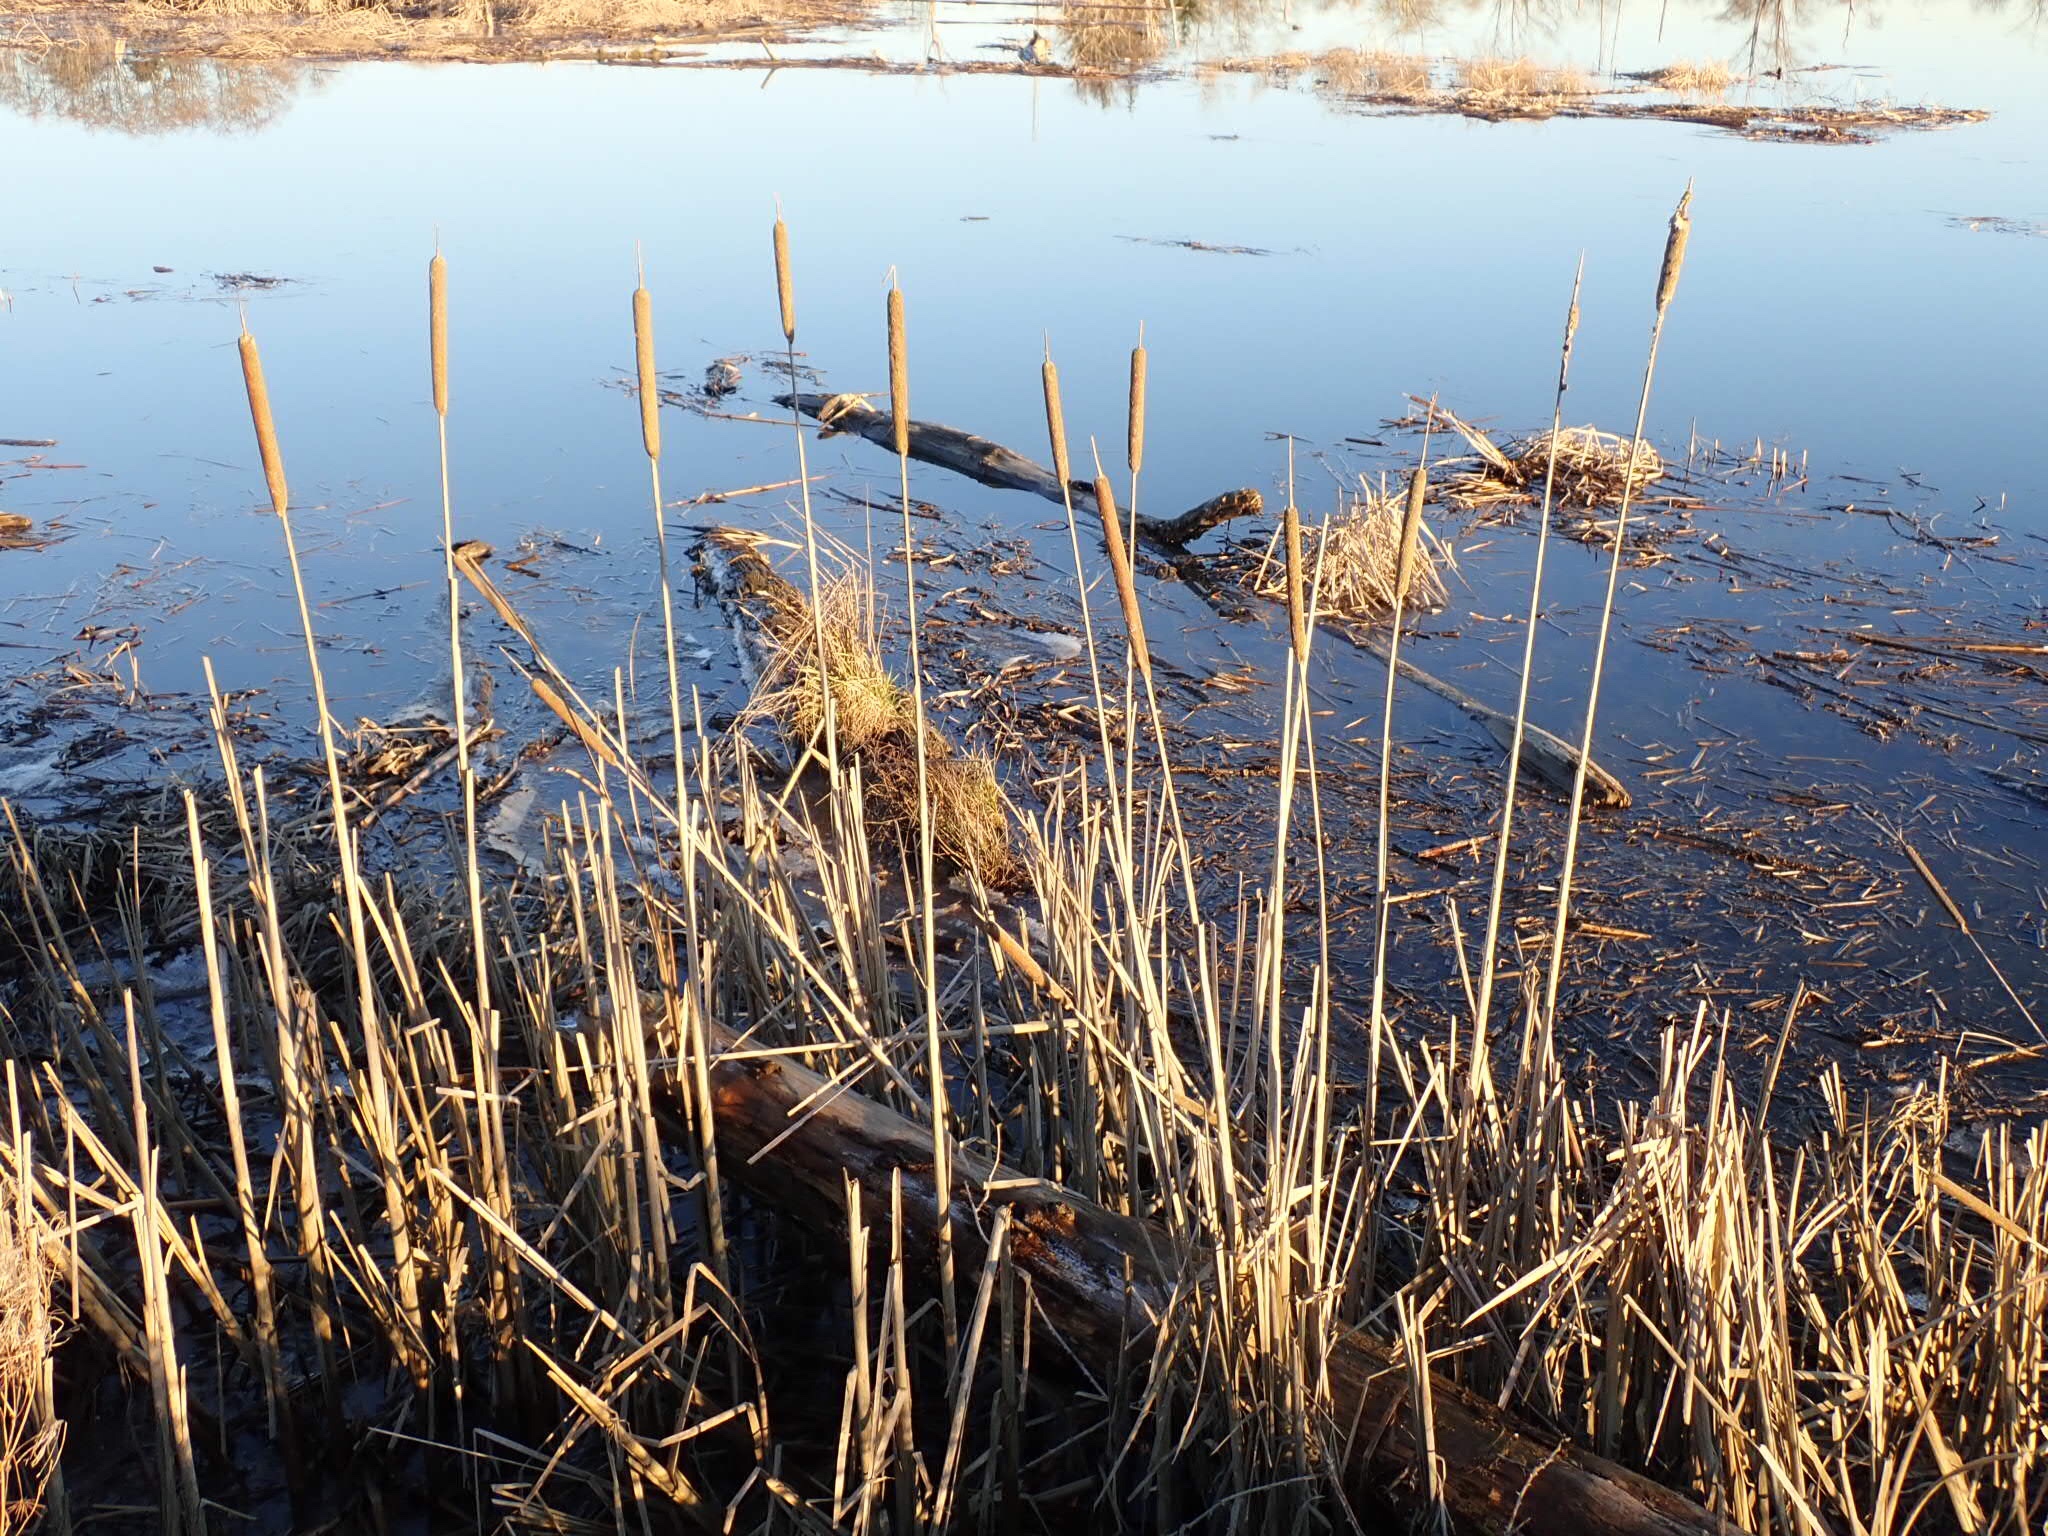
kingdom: Plantae
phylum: Tracheophyta
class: Liliopsida
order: Poales
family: Typhaceae
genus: Typha
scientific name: Typha latifolia
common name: Broadleaf cattail
